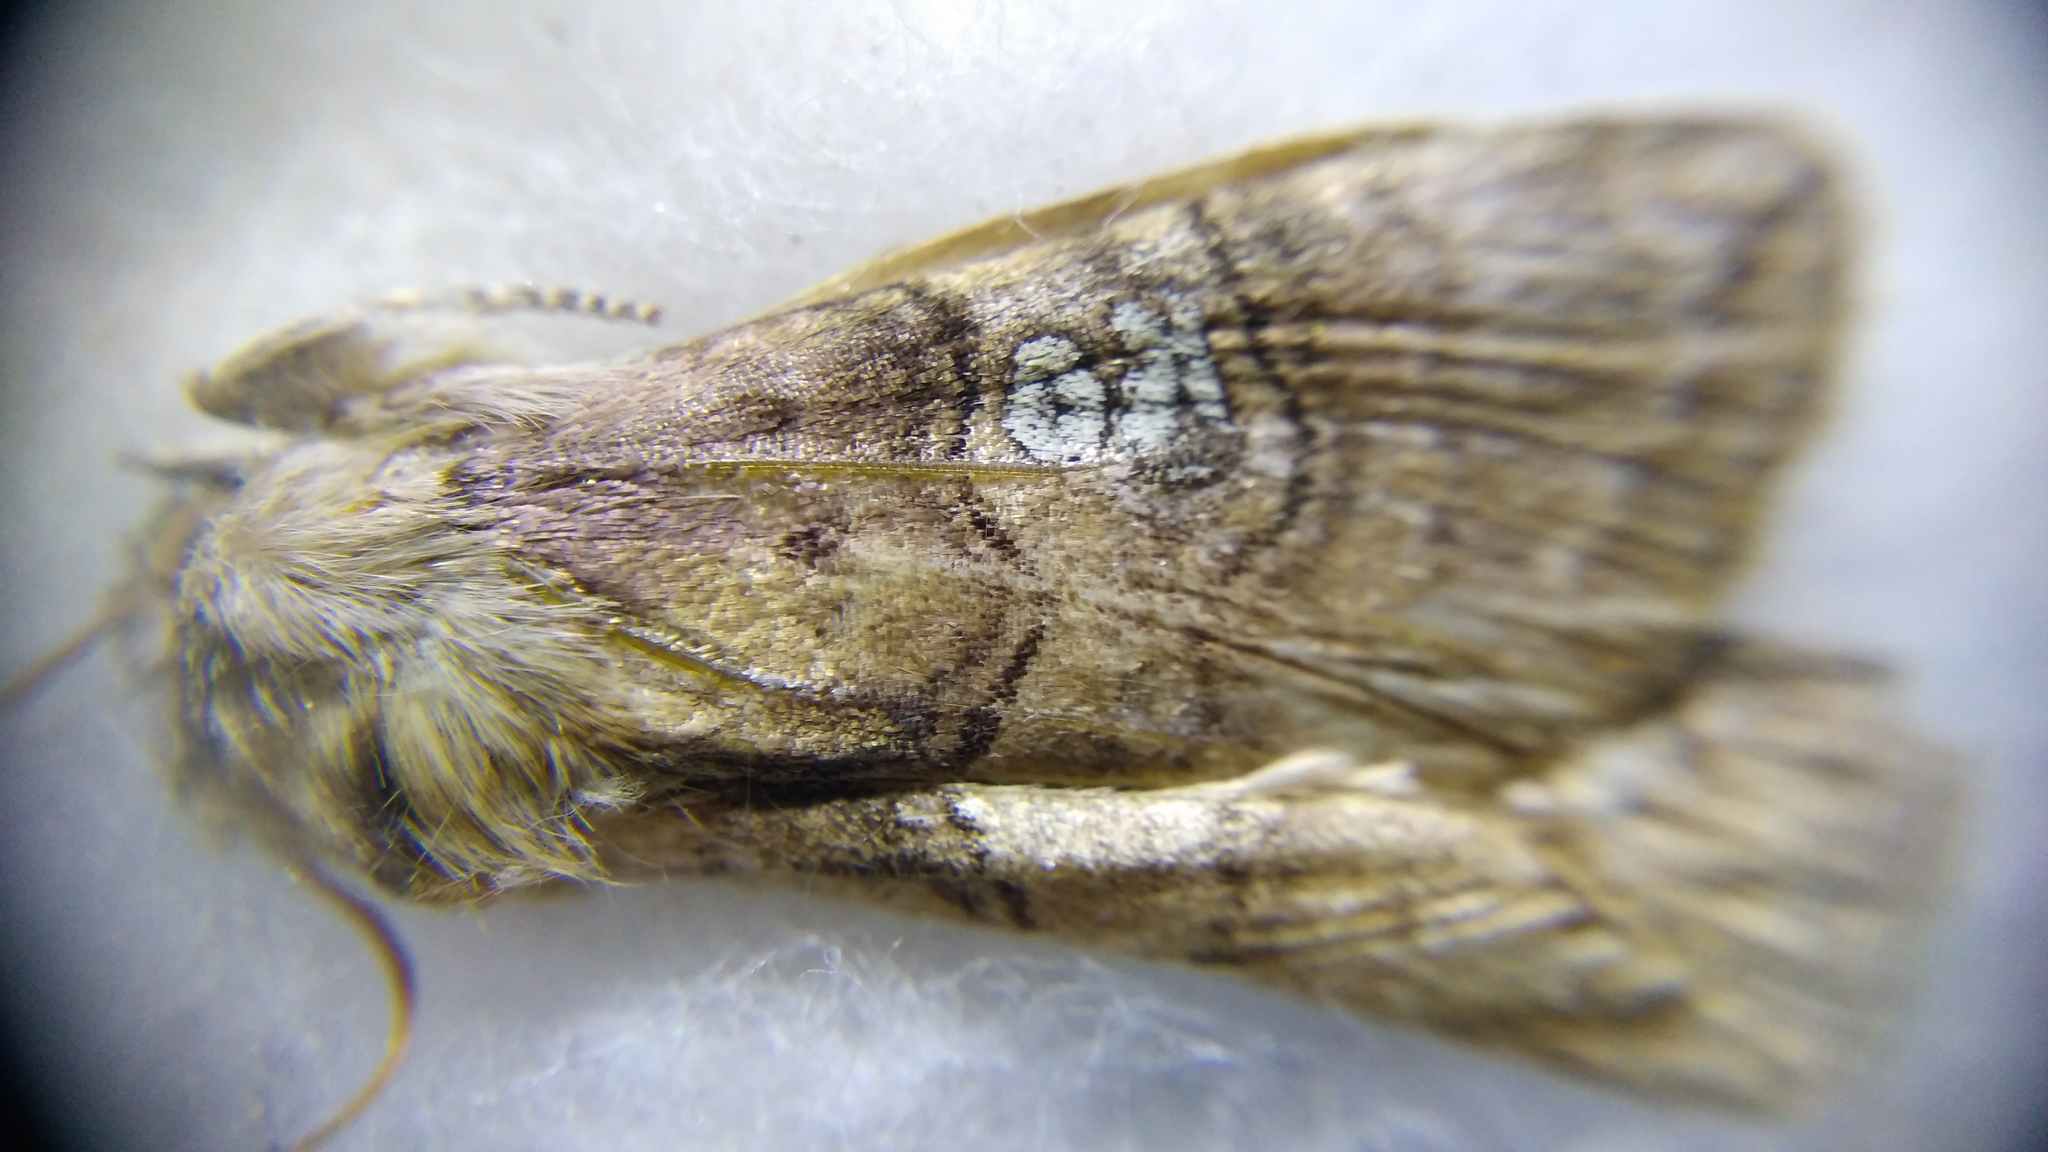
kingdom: Animalia
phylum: Arthropoda
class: Insecta
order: Lepidoptera
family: Drepanidae
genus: Tethea
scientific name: Tethea ocularis
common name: Figure of eighty
